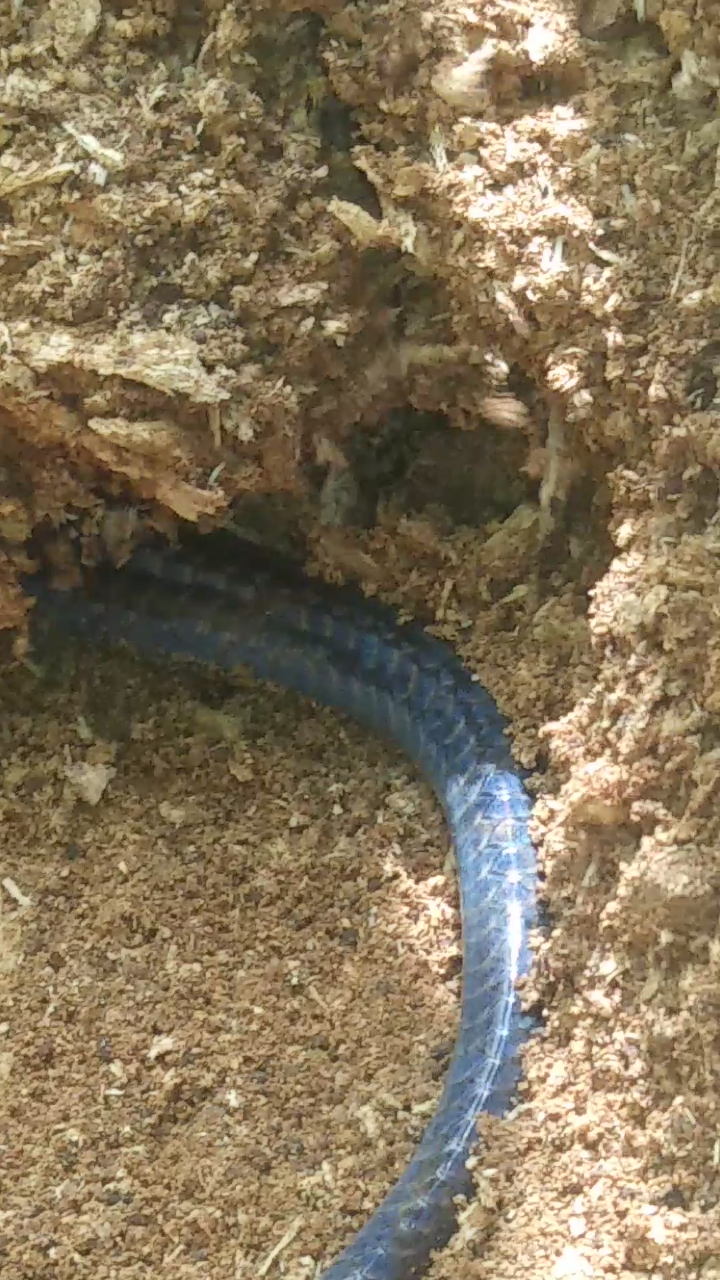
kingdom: Animalia
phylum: Chordata
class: Squamata
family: Scincidae
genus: Plestiodon
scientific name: Plestiodon fasciatus
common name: Five-lined skink
